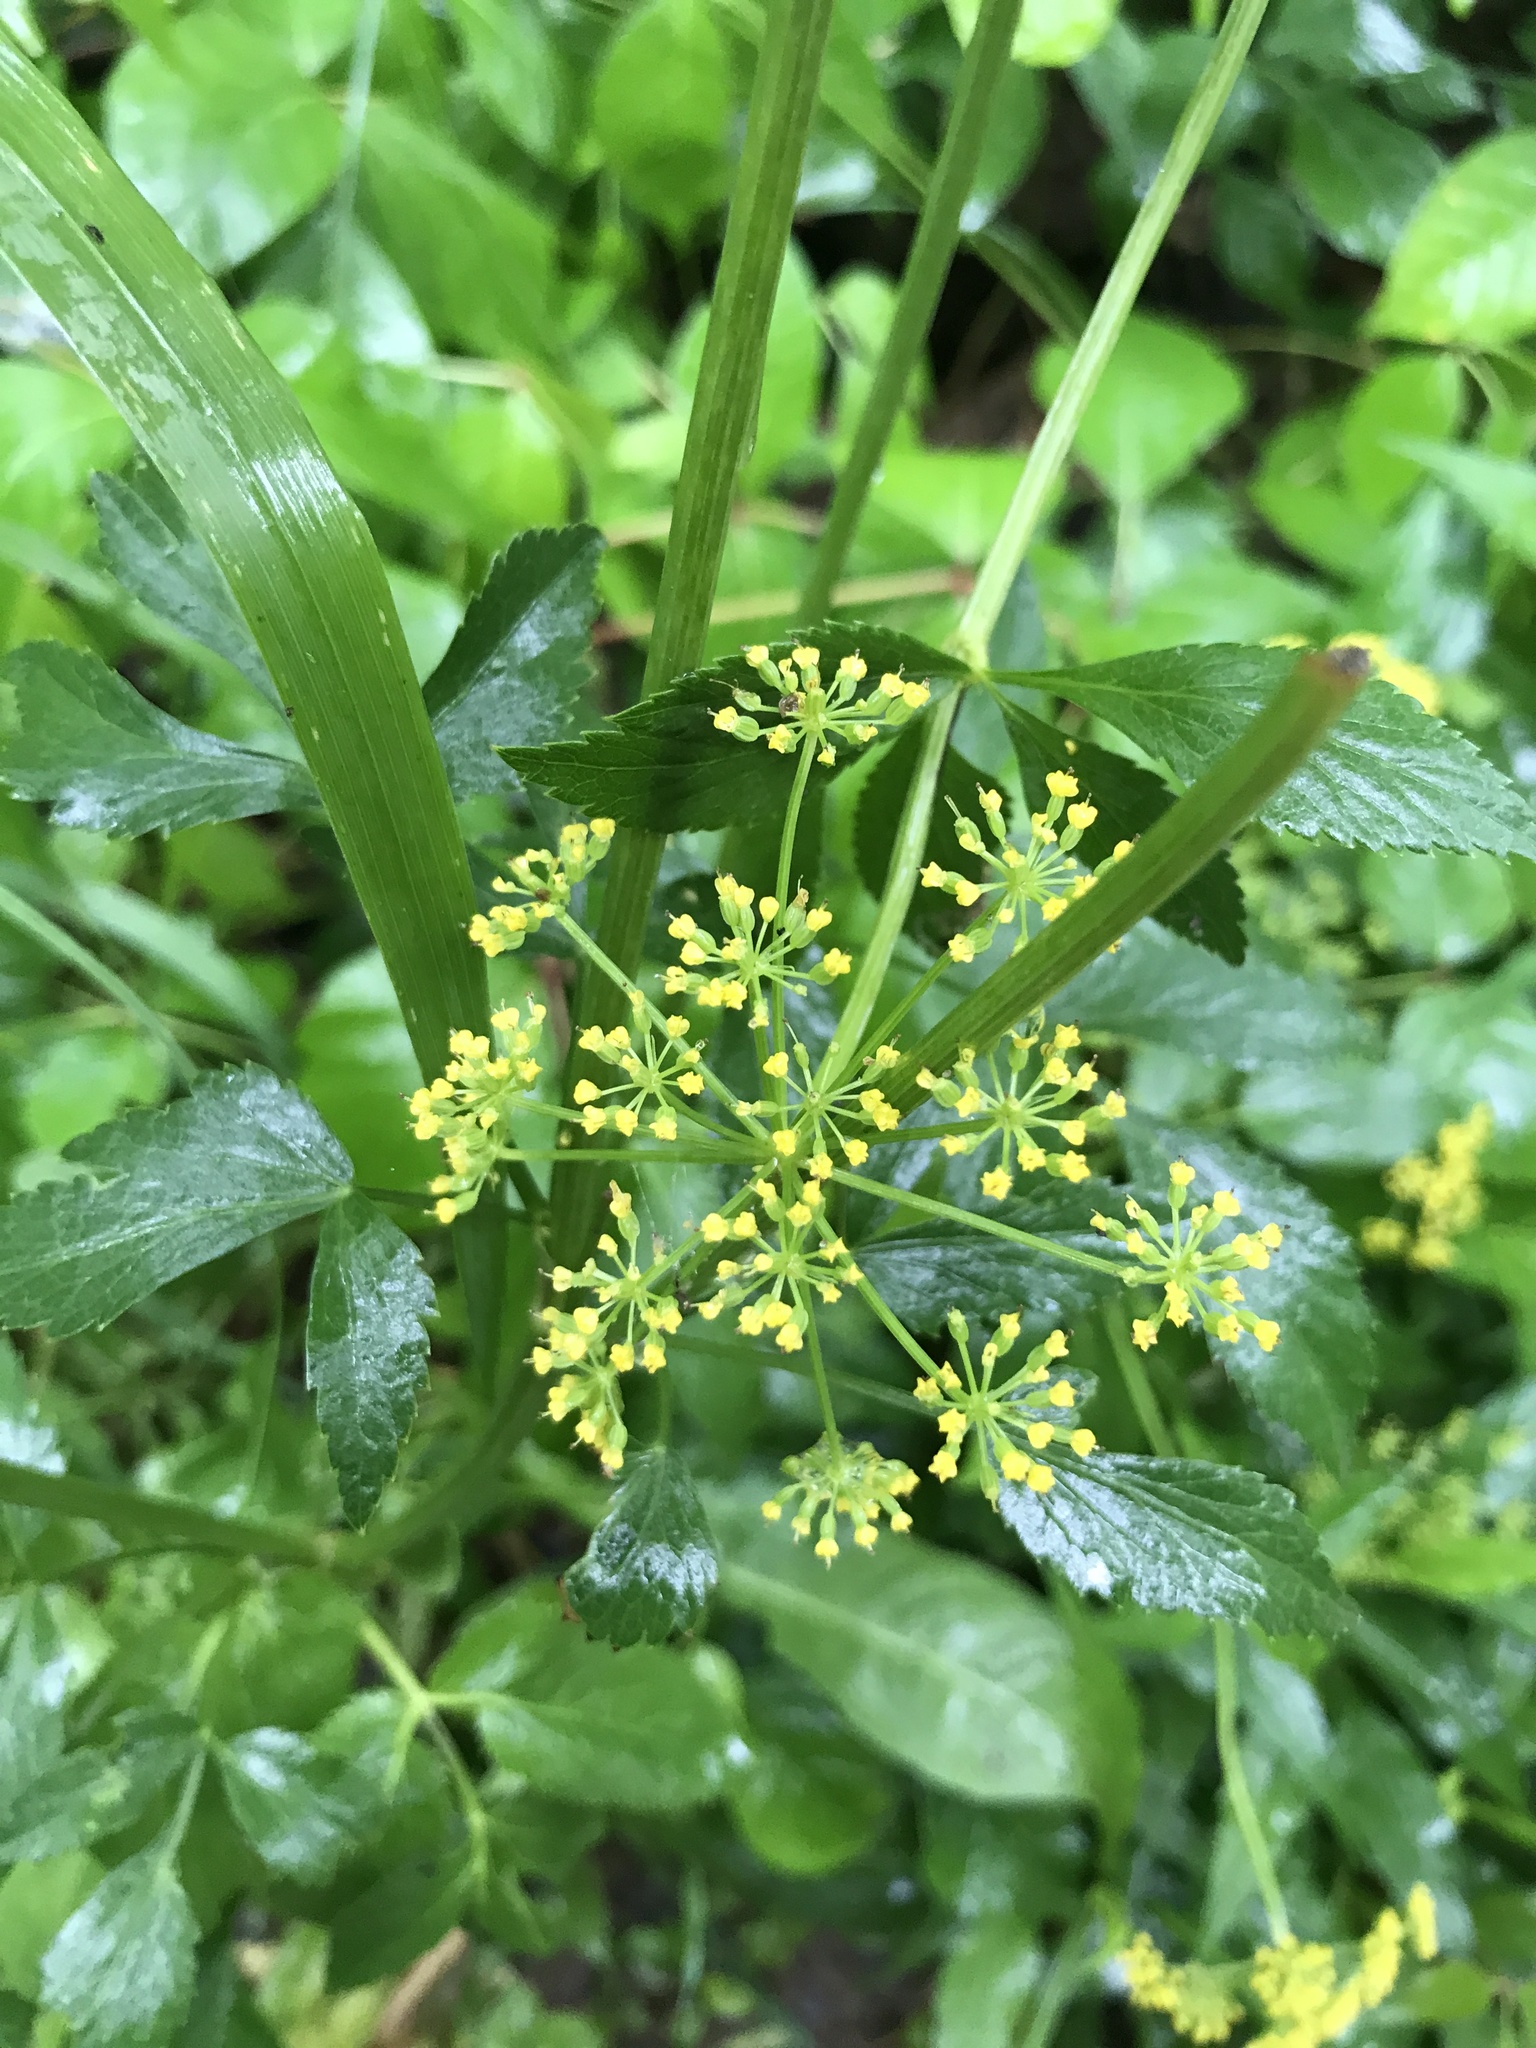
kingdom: Plantae
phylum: Tracheophyta
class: Magnoliopsida
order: Apiales
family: Apiaceae
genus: Zizia
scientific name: Zizia aurea
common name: Golden alexanders
